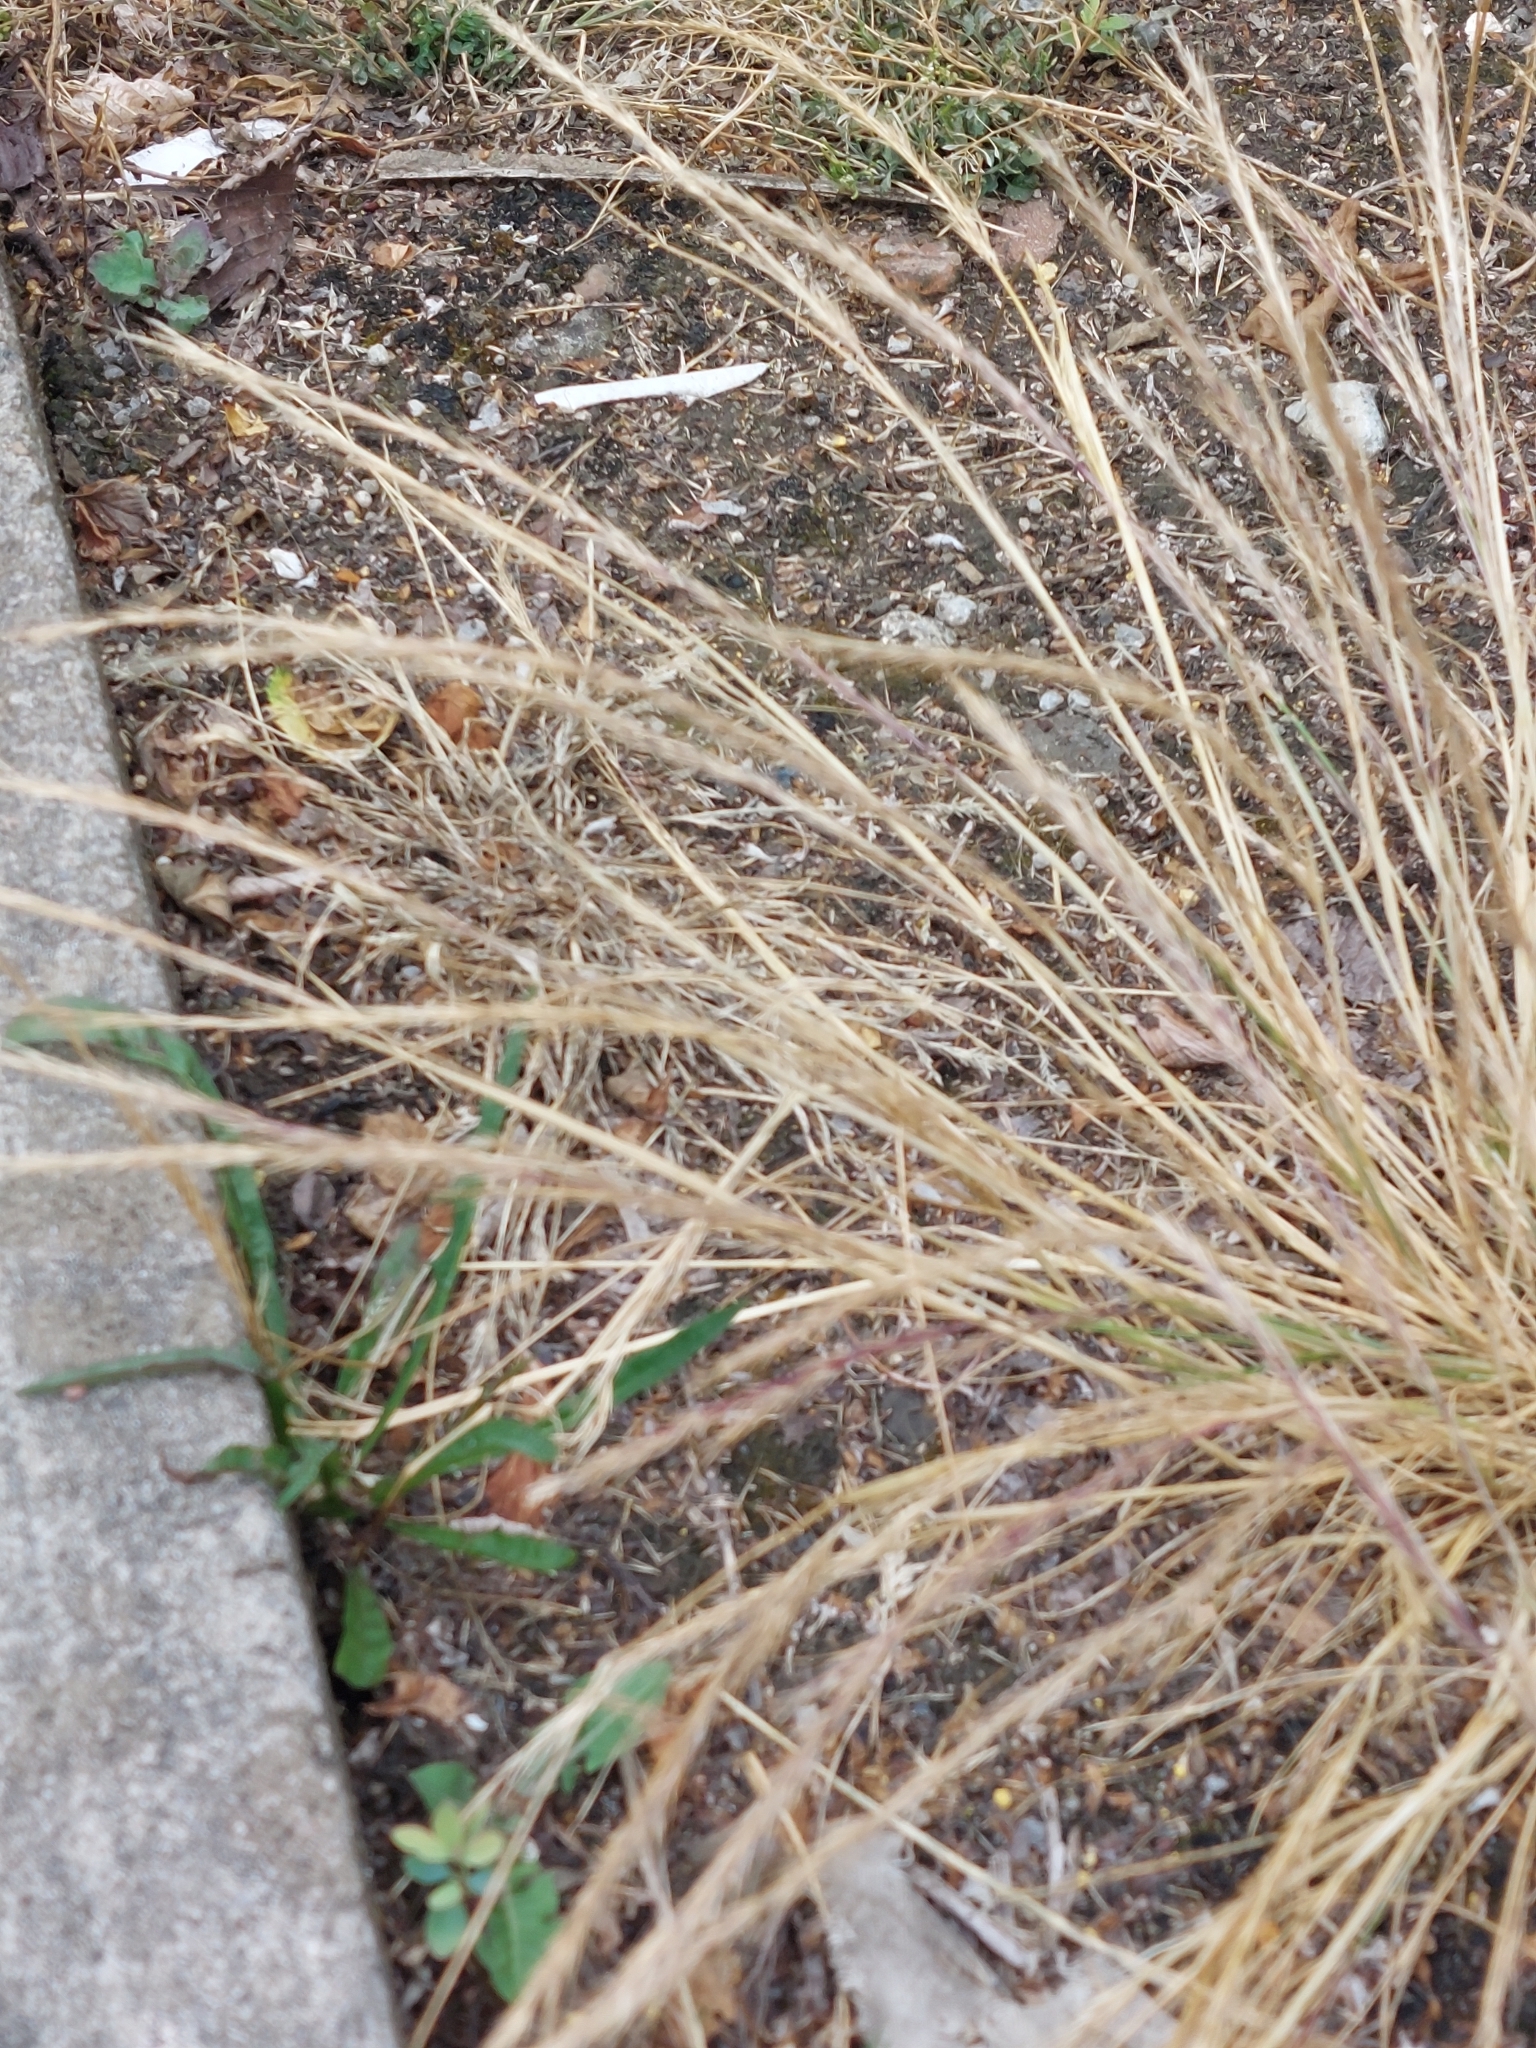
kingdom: Plantae
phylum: Tracheophyta
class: Liliopsida
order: Poales
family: Poaceae
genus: Festuca
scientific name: Festuca myuros
